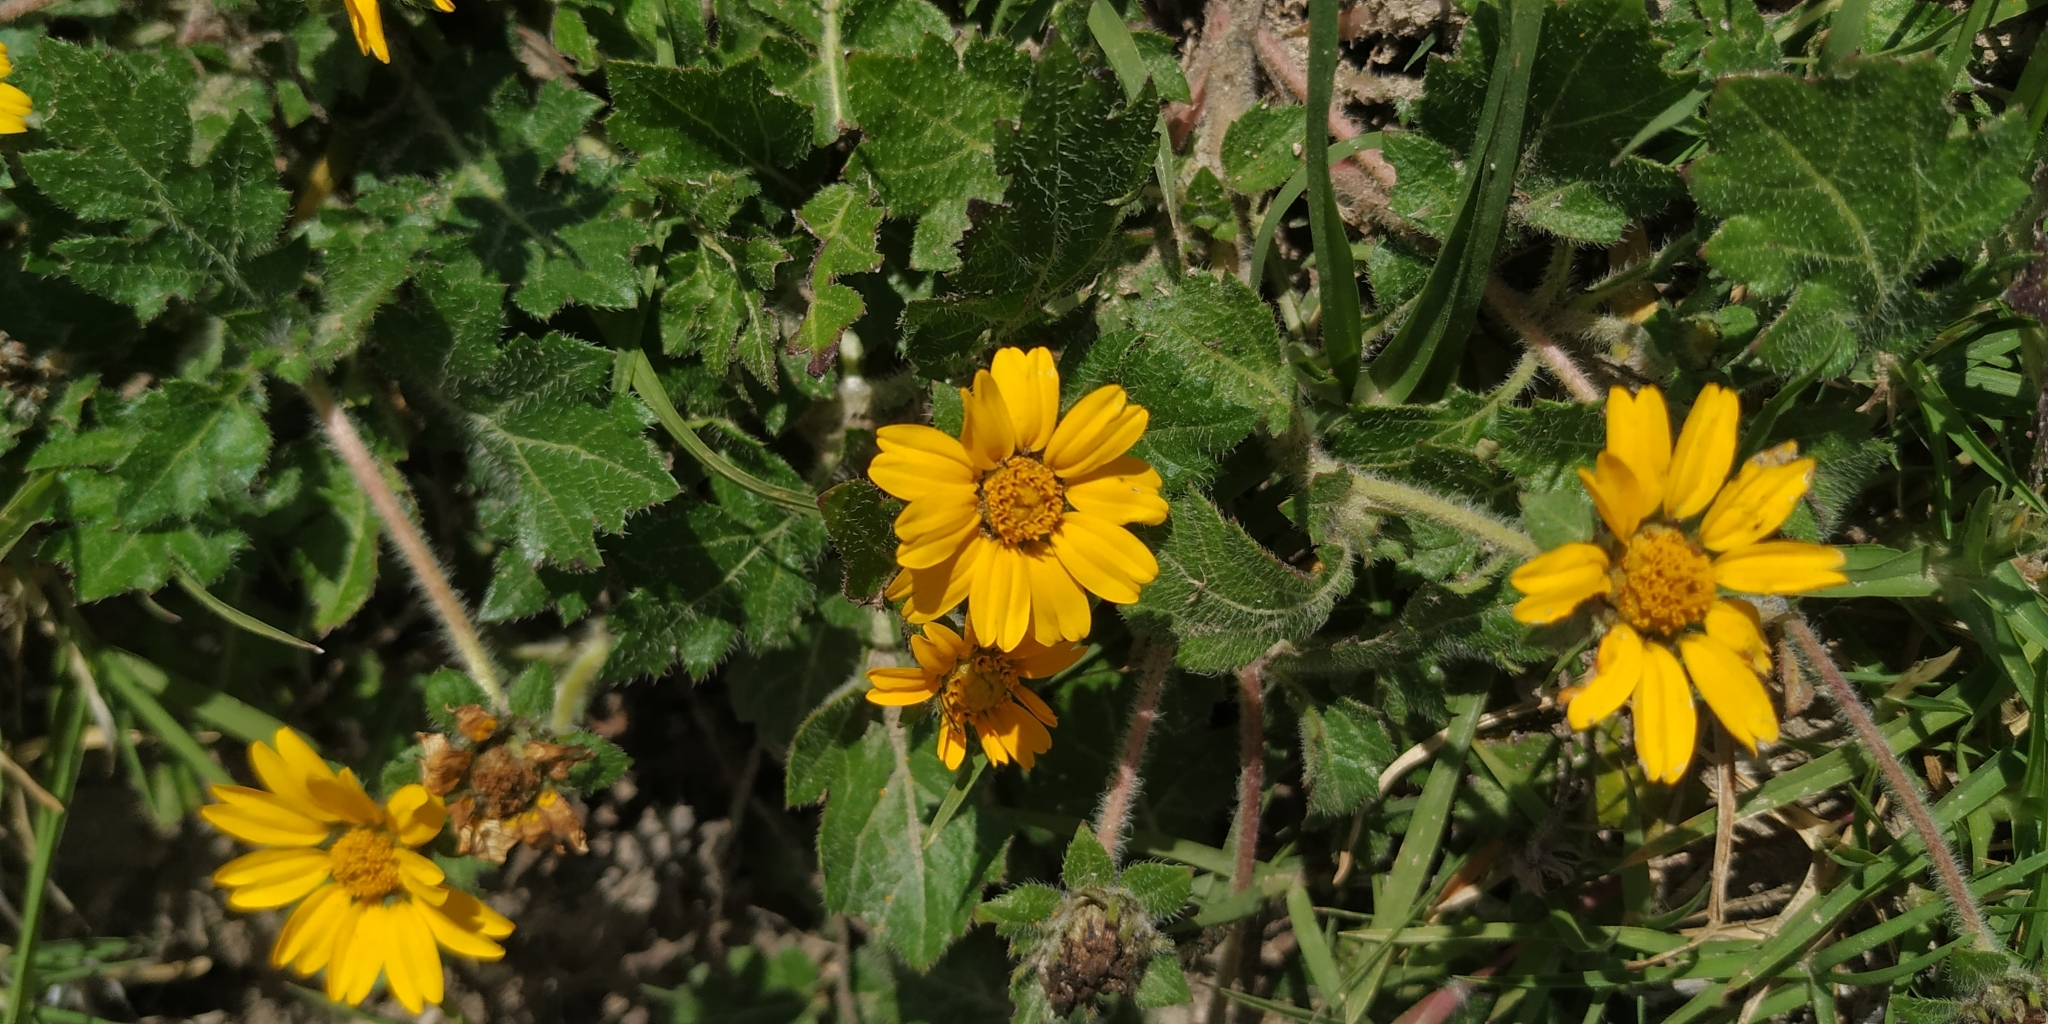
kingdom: Plantae
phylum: Tracheophyta
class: Magnoliopsida
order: Asterales
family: Asteraceae
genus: Dugesia
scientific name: Dugesia mexicana
